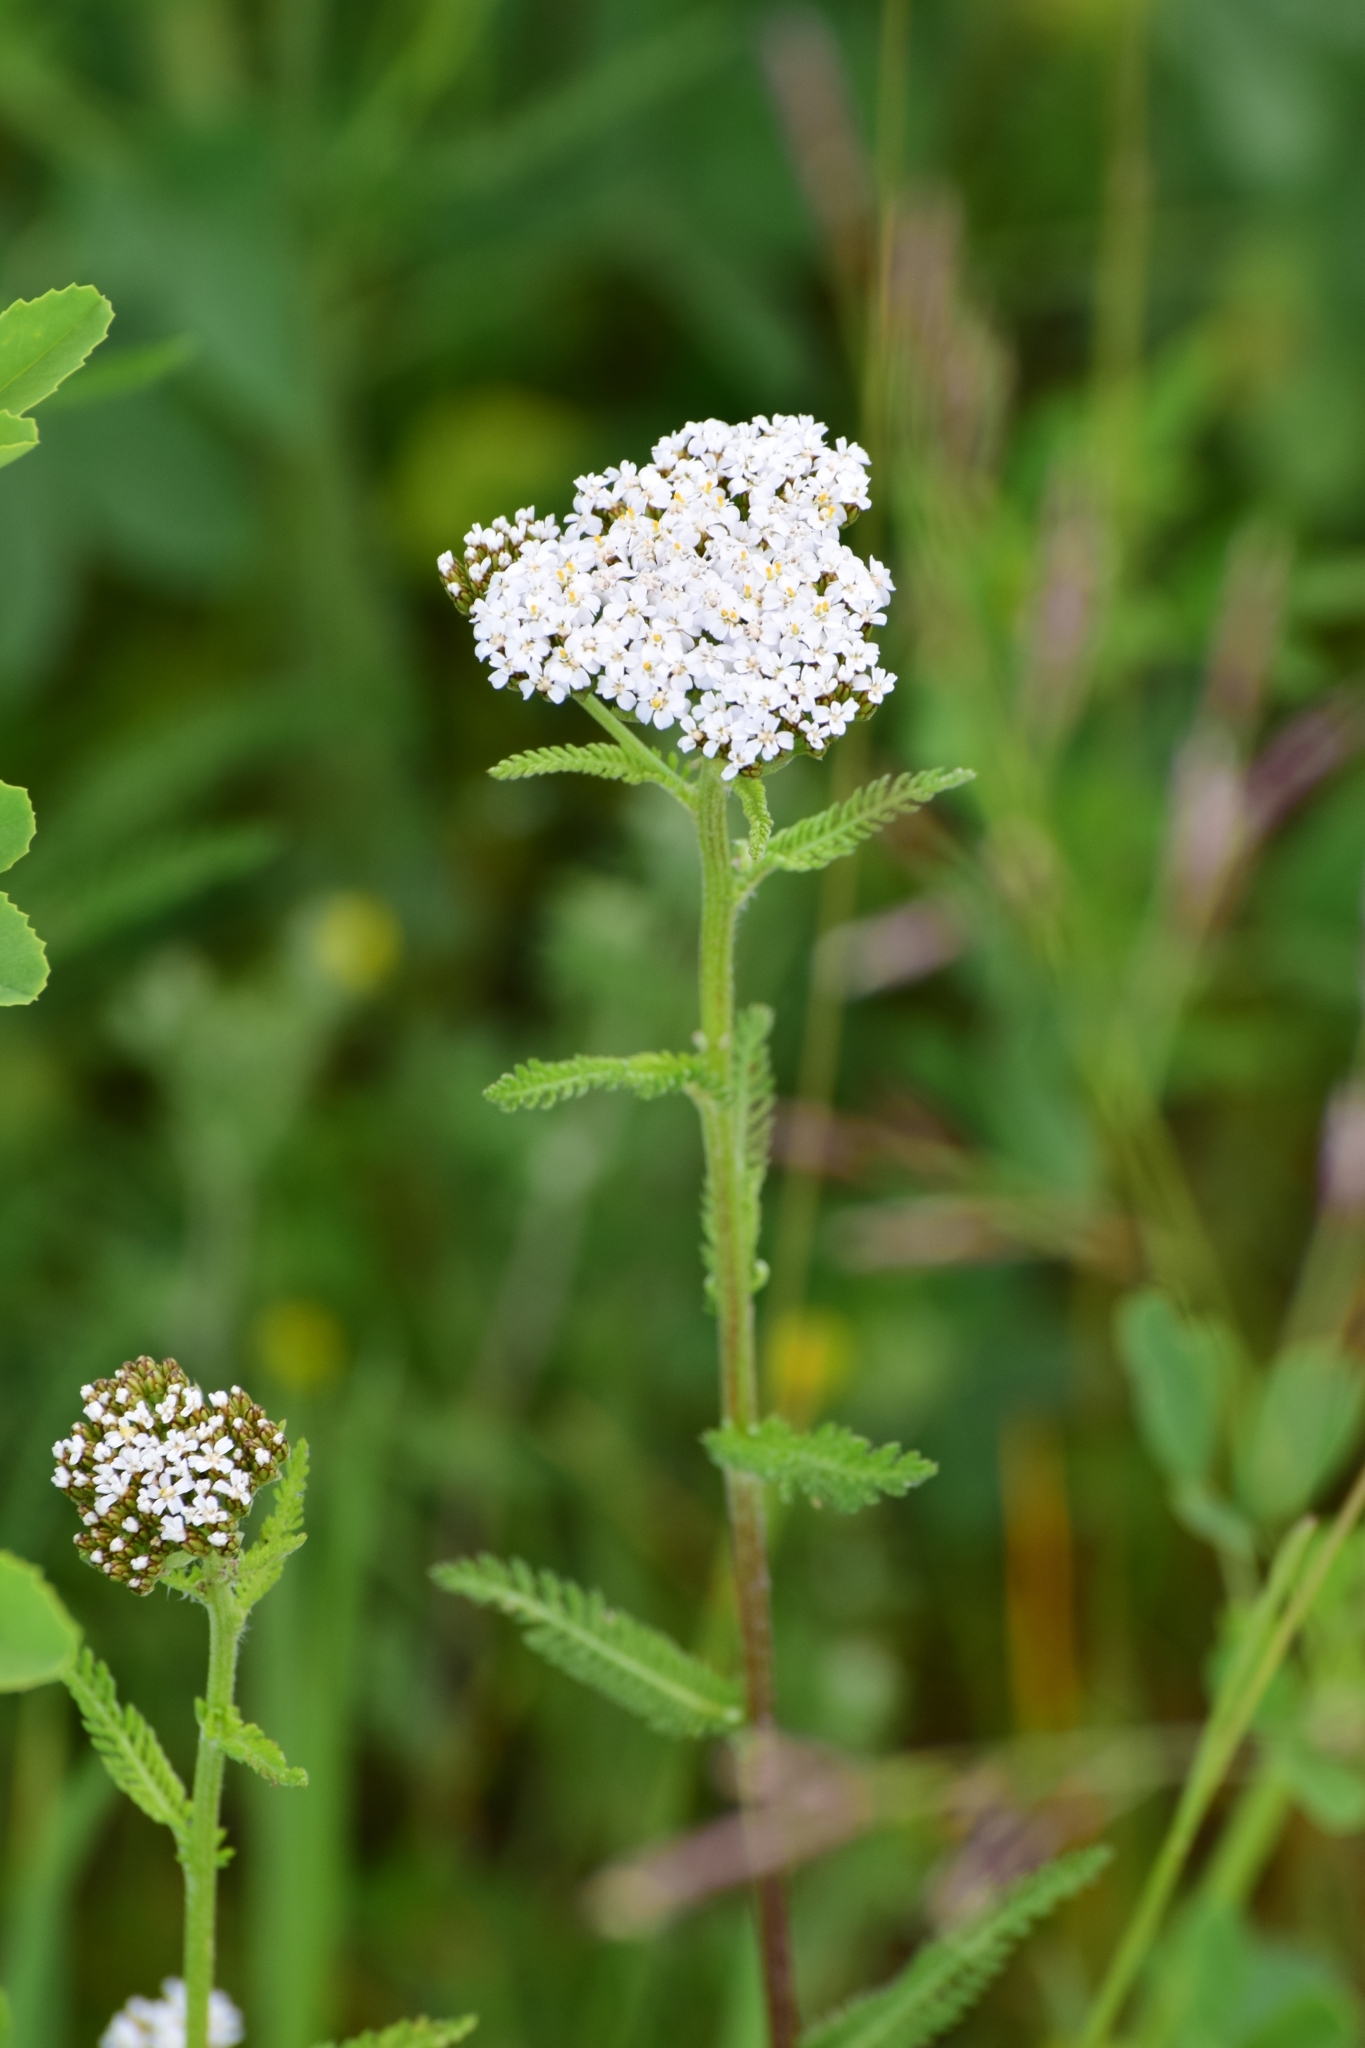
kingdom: Plantae
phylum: Tracheophyta
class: Magnoliopsida
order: Asterales
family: Asteraceae
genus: Achillea
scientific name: Achillea millefolium
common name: Yarrow
